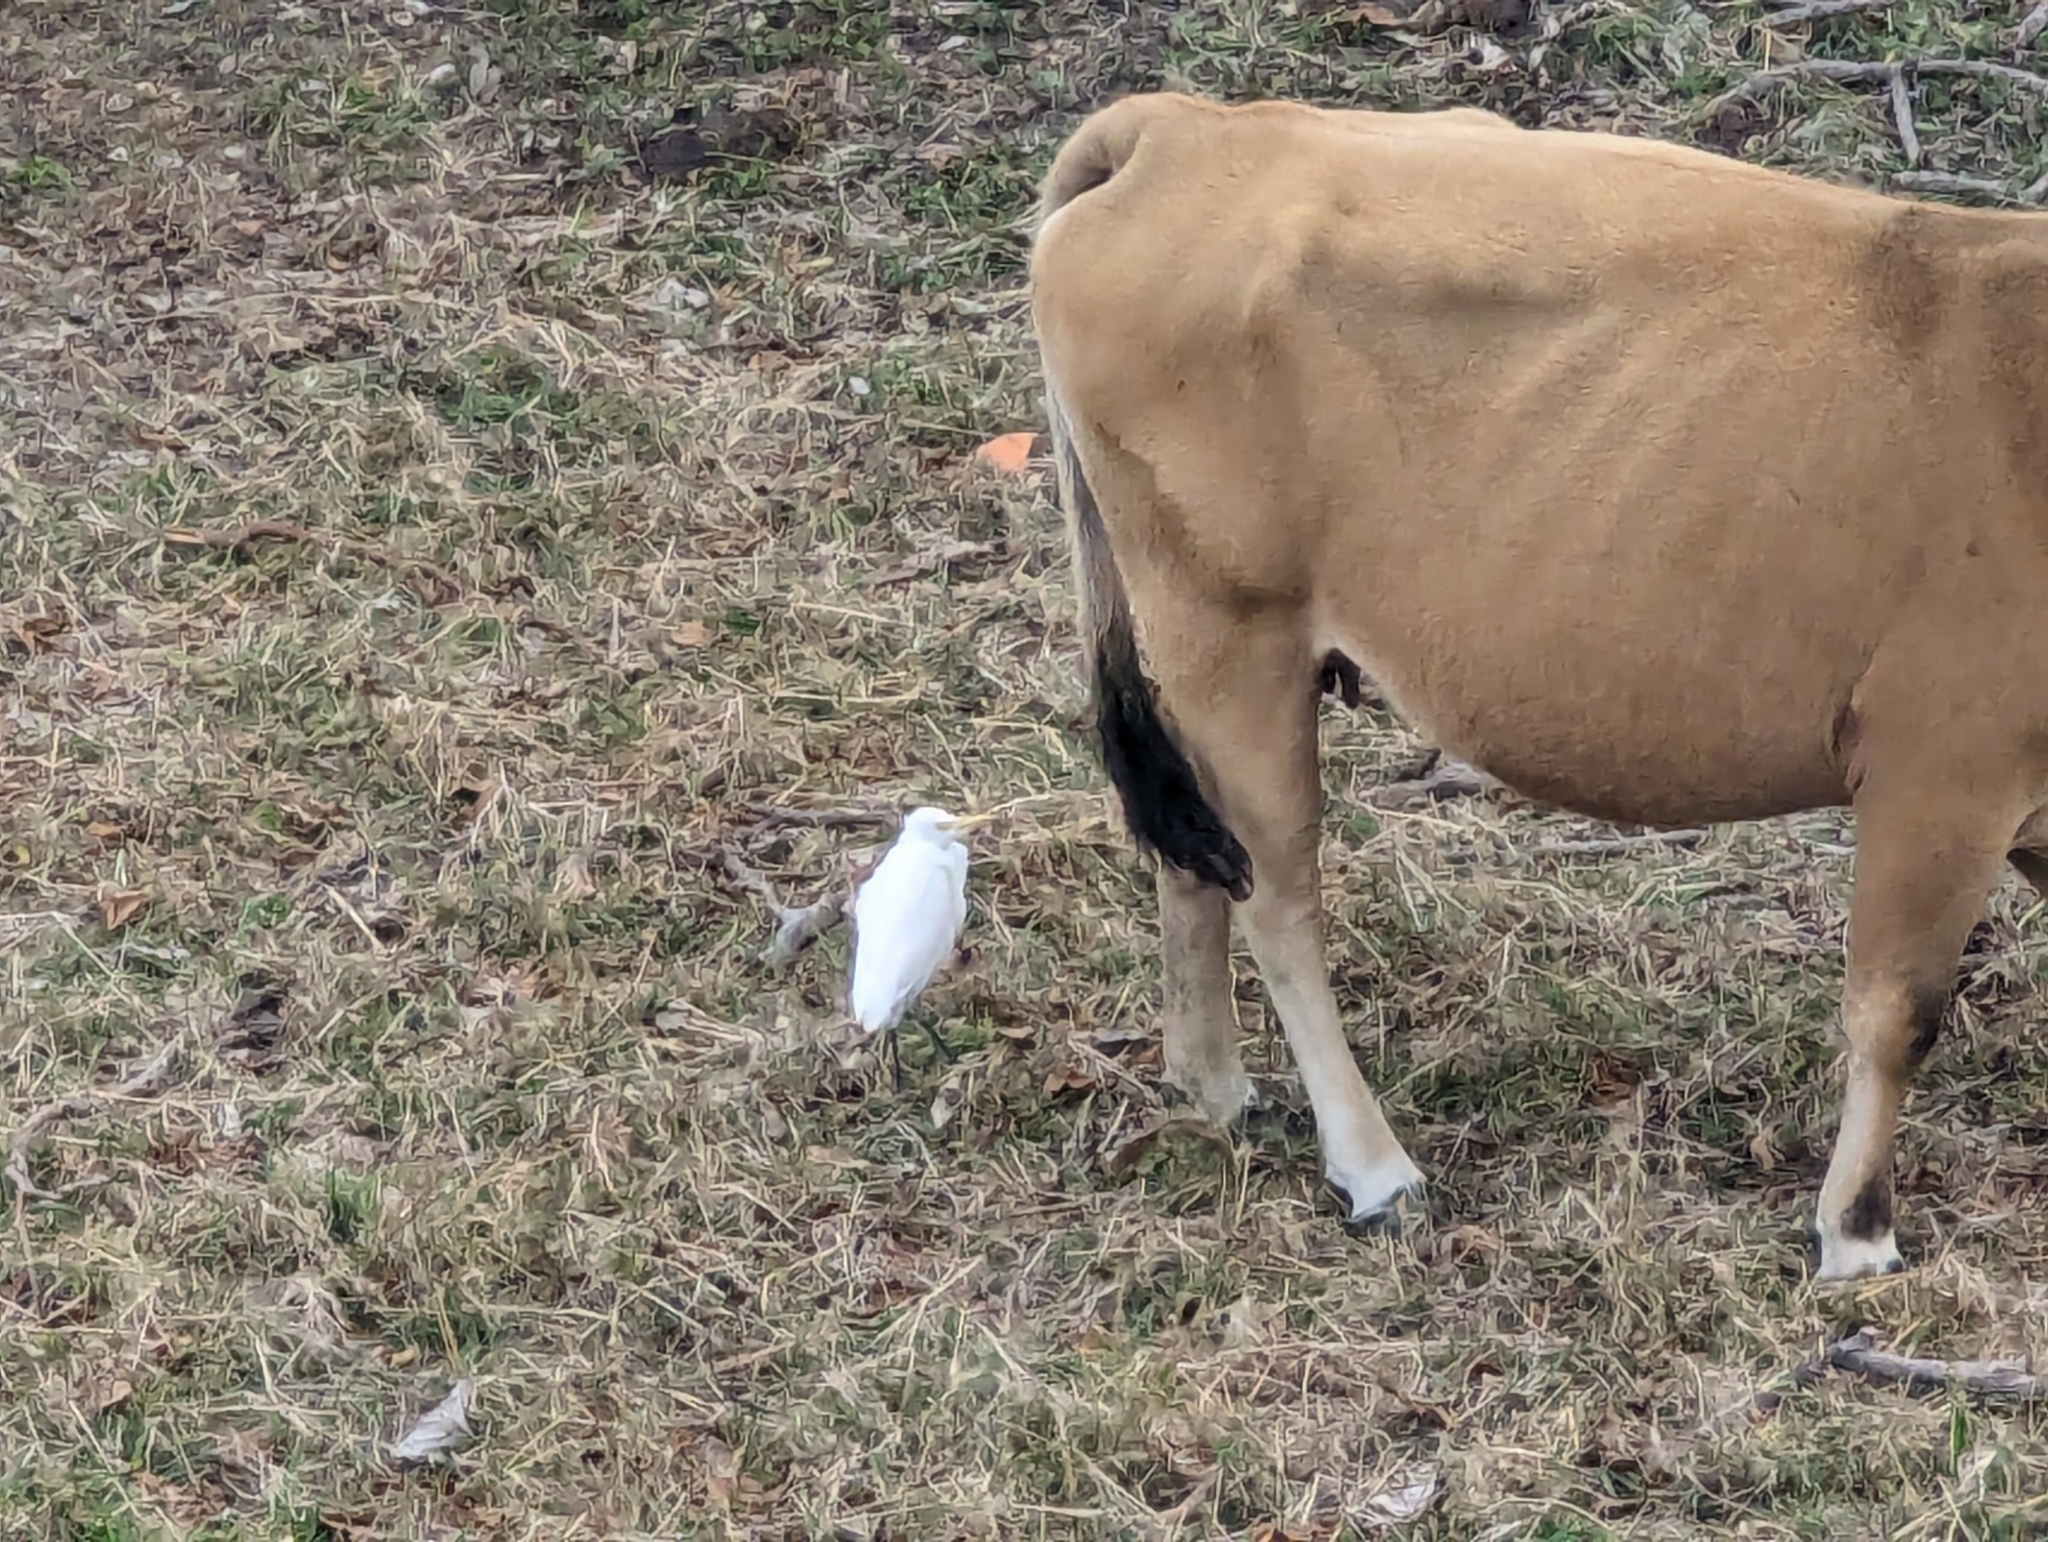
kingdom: Animalia
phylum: Chordata
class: Aves
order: Pelecaniformes
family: Ardeidae
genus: Bubulcus
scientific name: Bubulcus coromandus
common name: Eastern cattle egret
